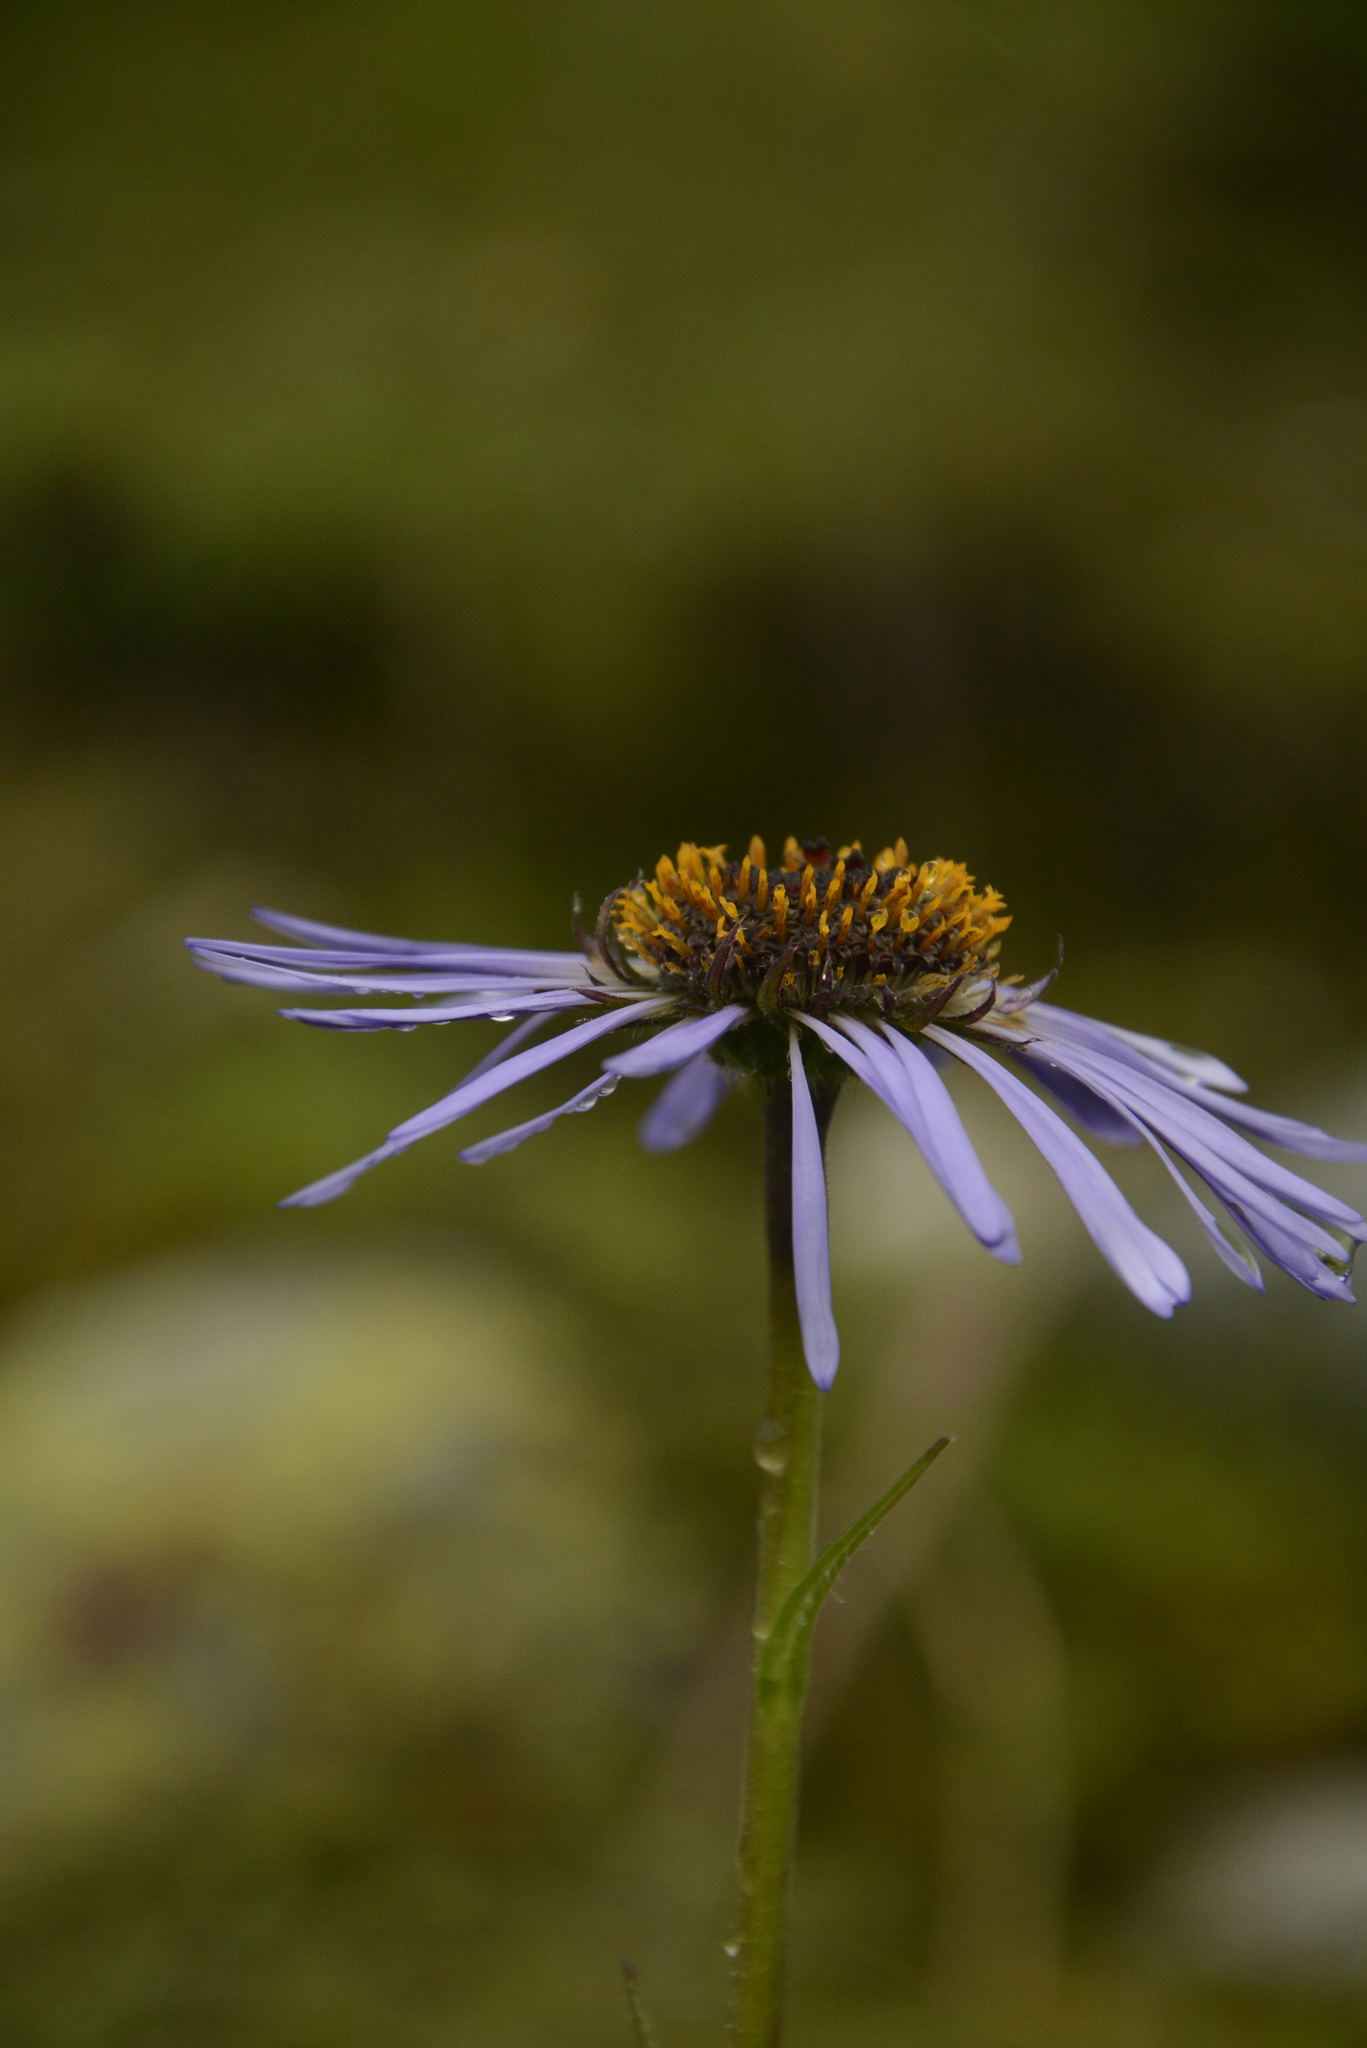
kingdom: Plantae
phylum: Tracheophyta
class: Magnoliopsida
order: Asterales
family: Asteraceae
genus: Aster
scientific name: Aster diplostephioides
